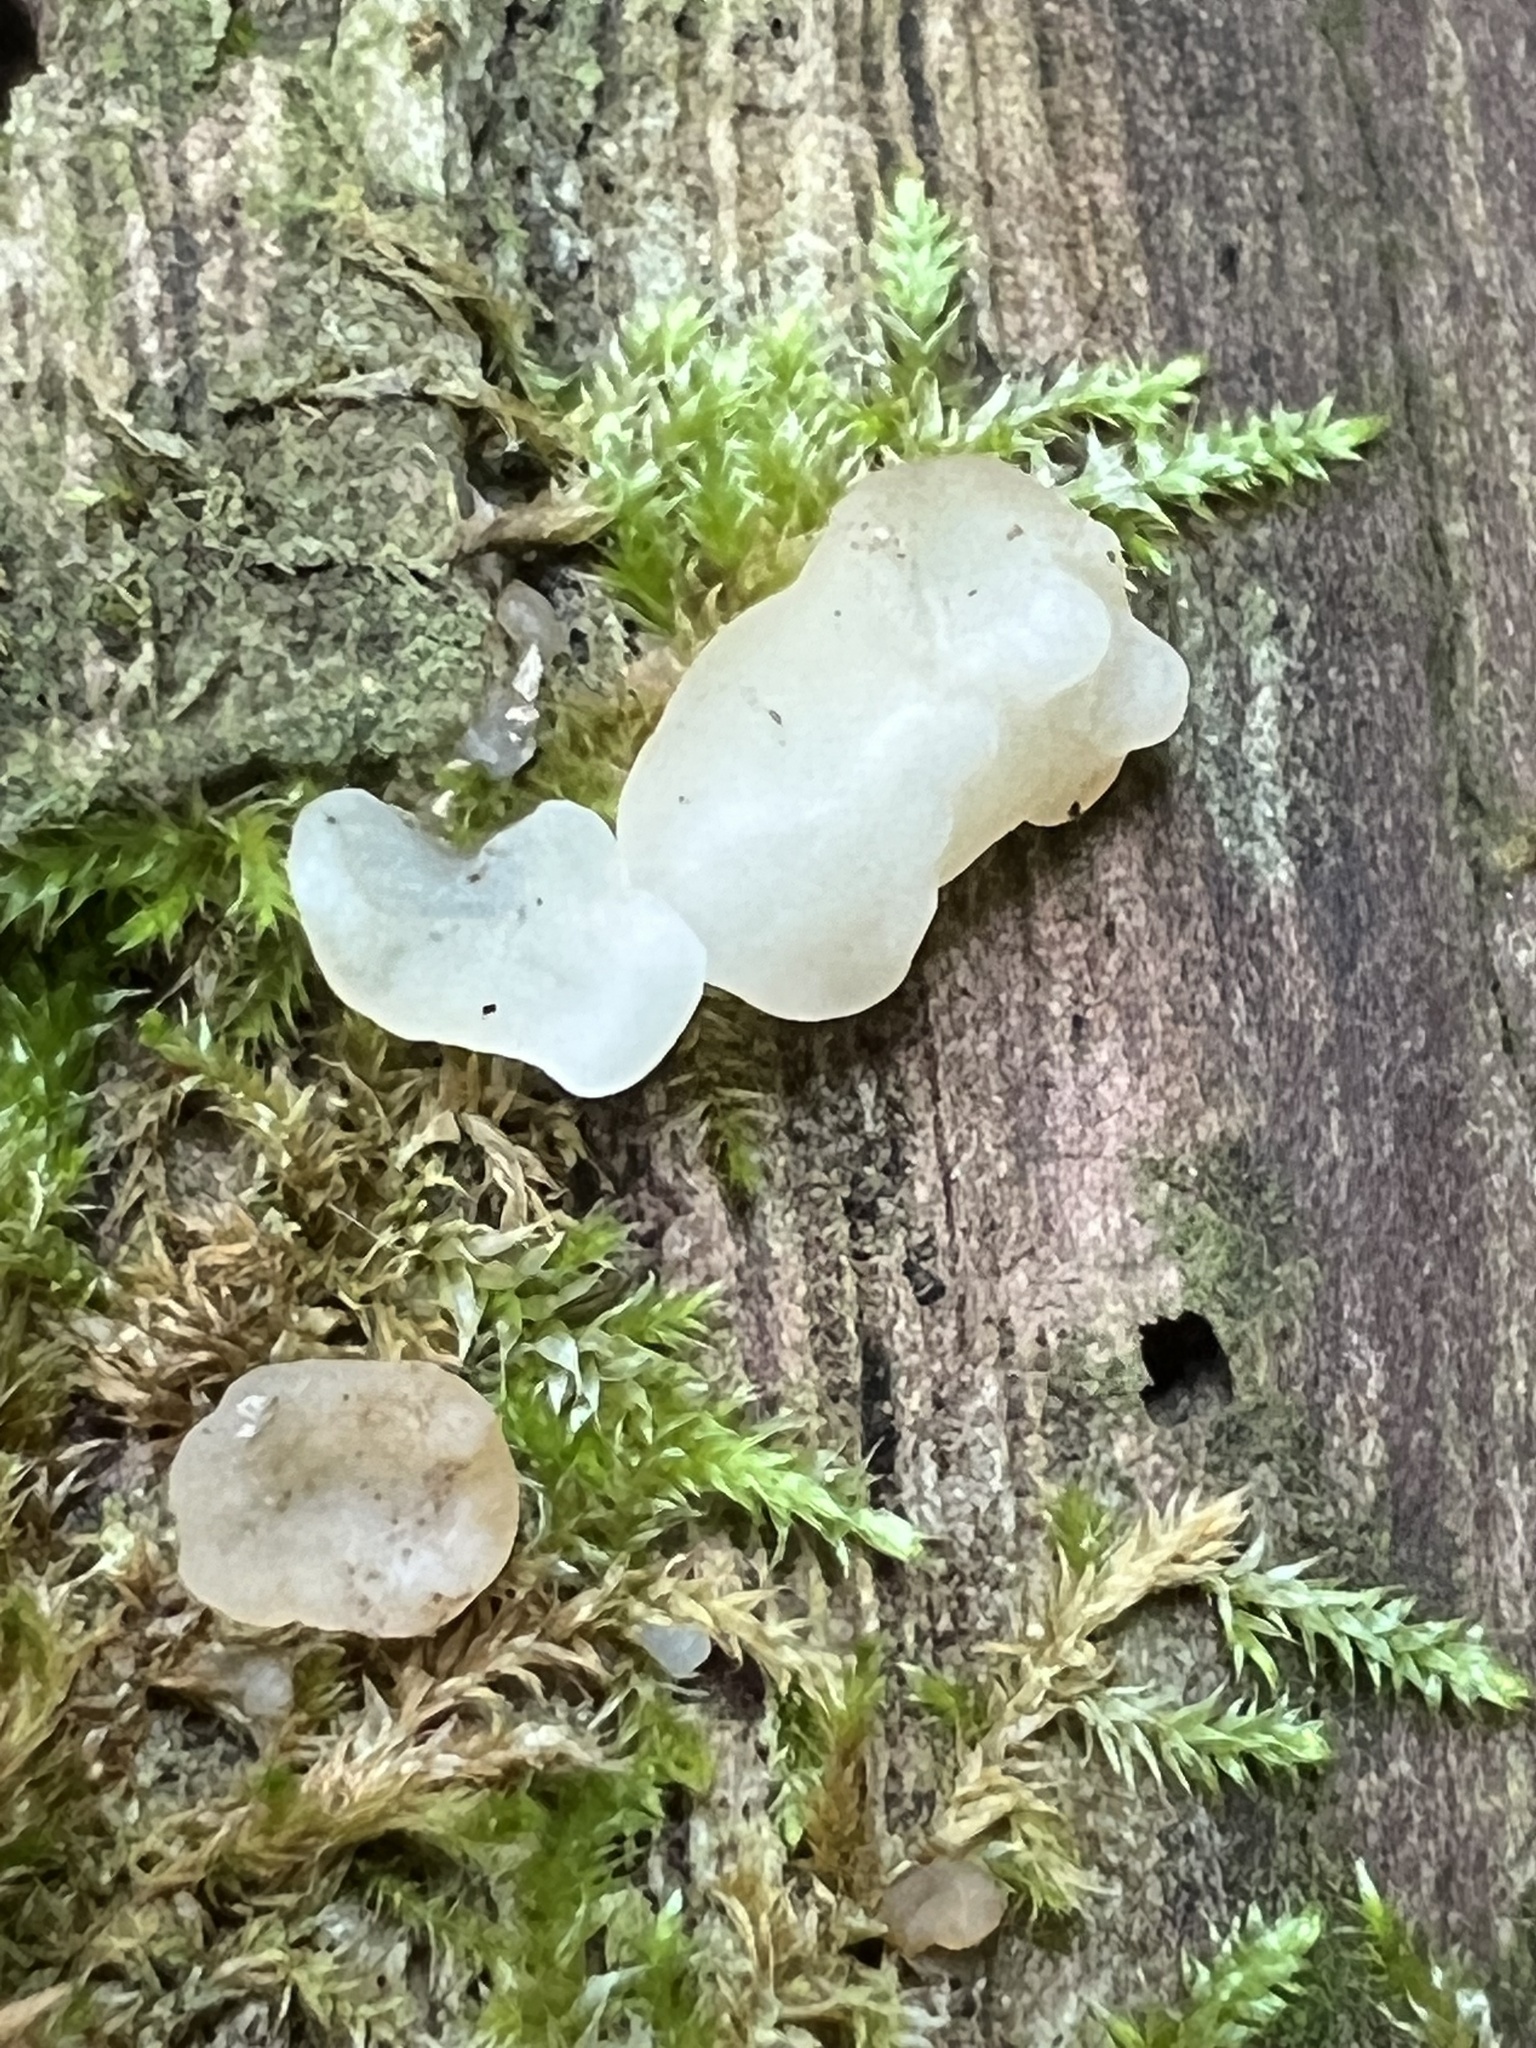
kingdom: Fungi
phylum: Basidiomycota
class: Agaricomycetes
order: Auriculariales
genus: Ductifera
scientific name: Ductifera pululahuana
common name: White jelly fungus
